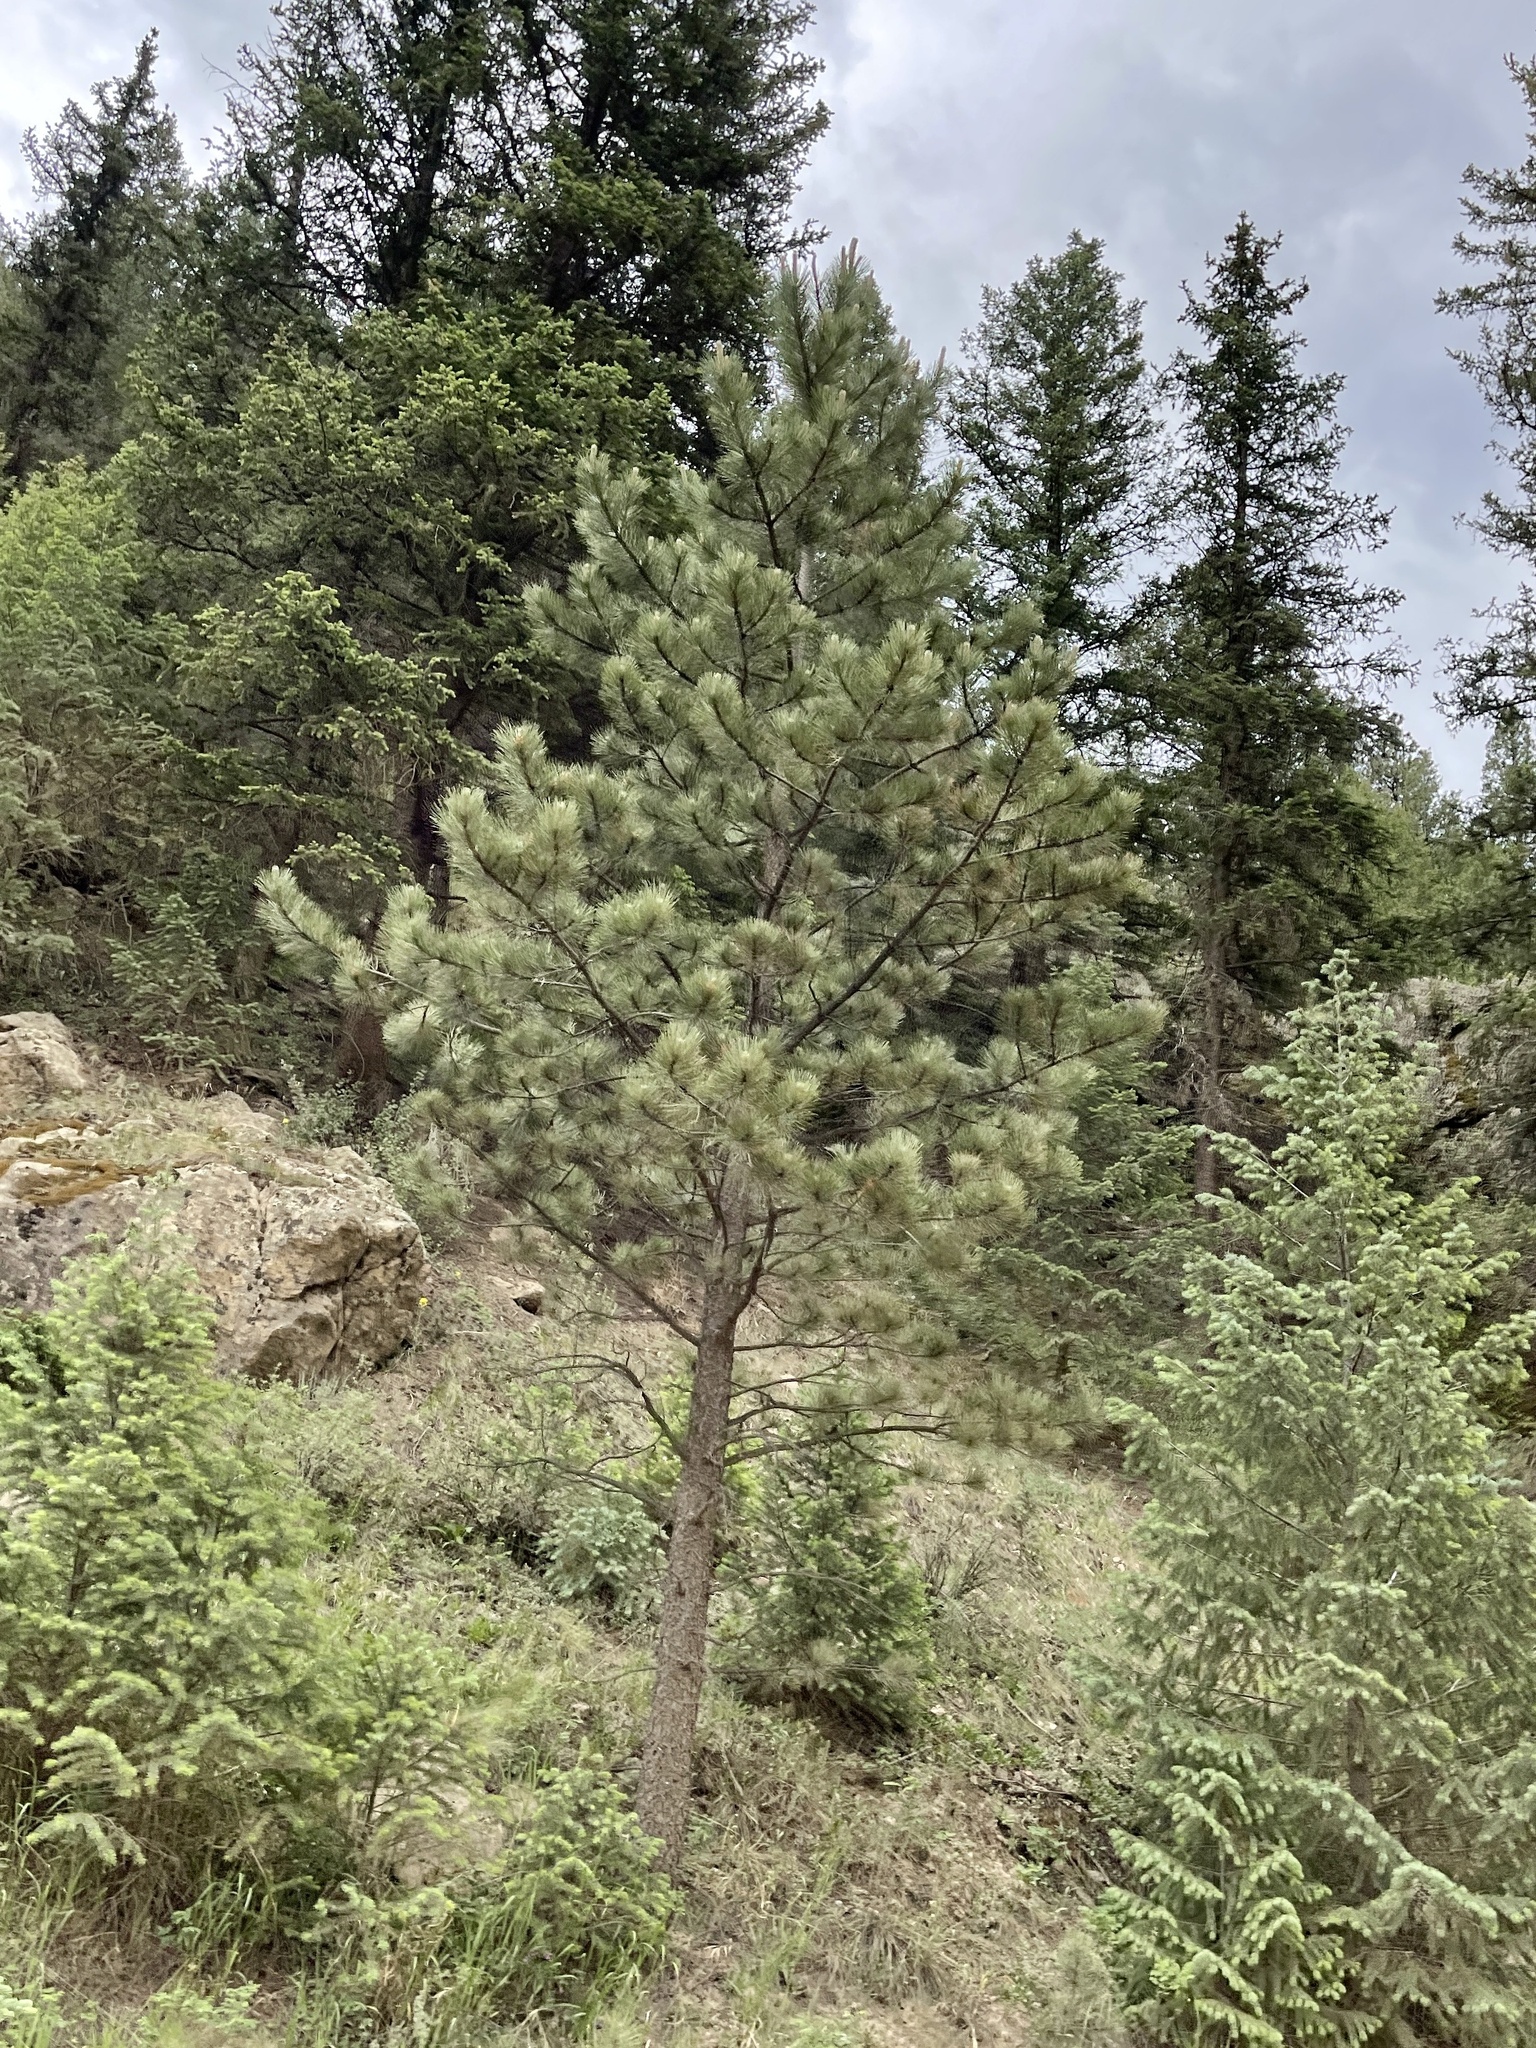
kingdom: Plantae
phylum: Tracheophyta
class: Pinopsida
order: Pinales
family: Pinaceae
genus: Pinus
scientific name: Pinus ponderosa
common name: Western yellow-pine
